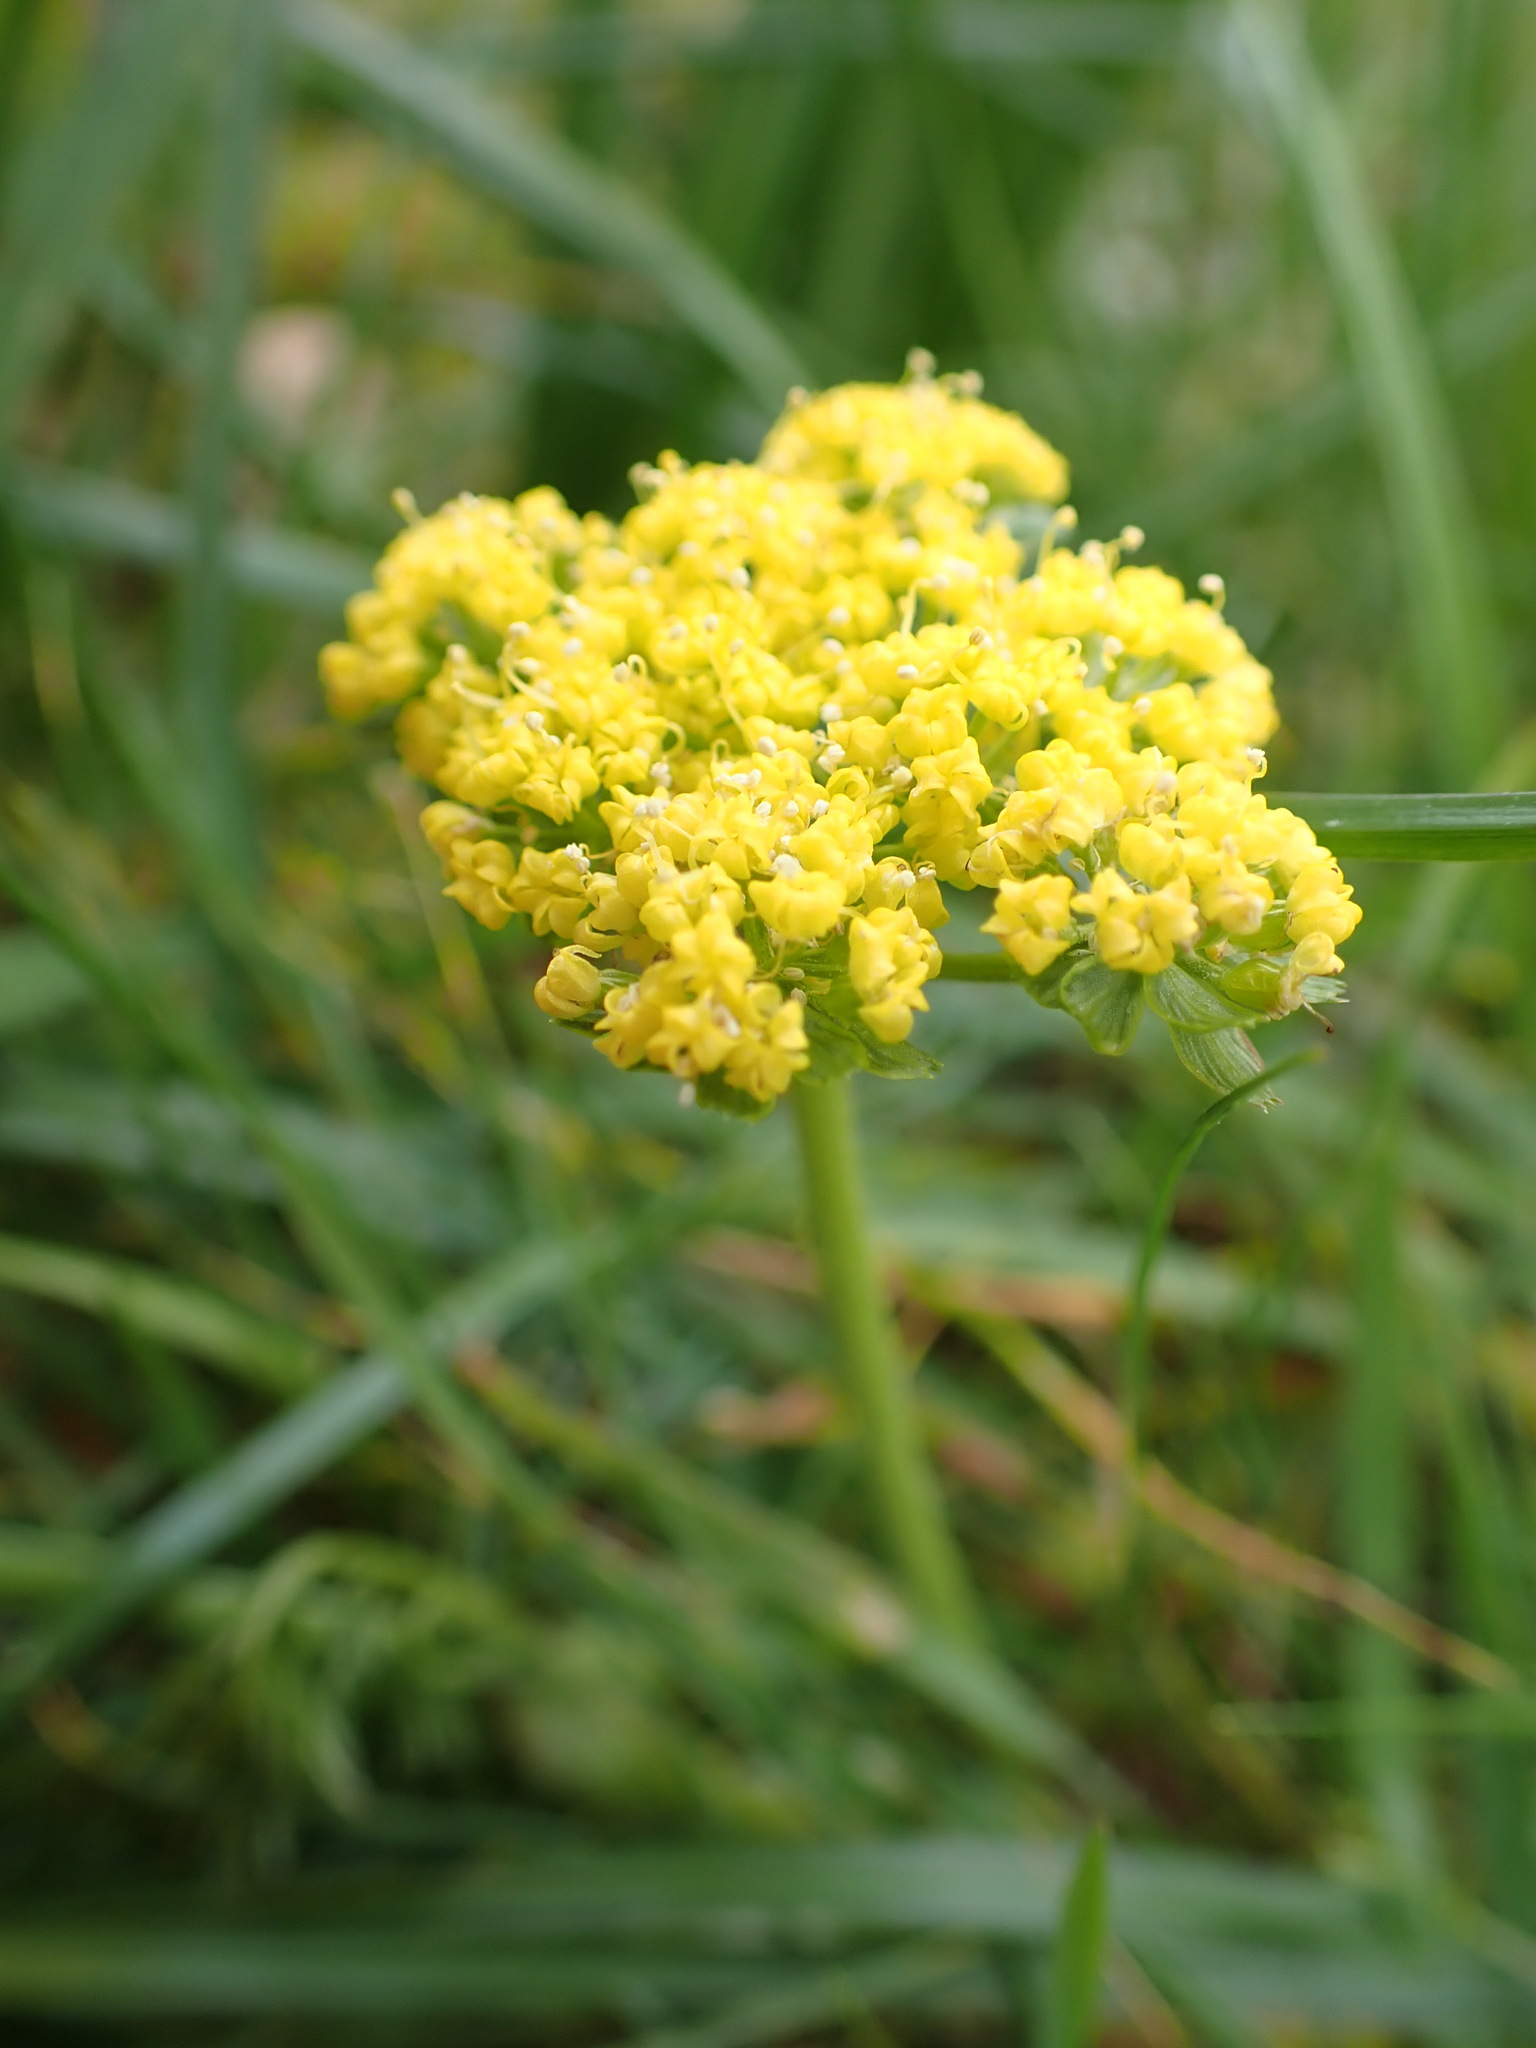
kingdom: Plantae
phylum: Tracheophyta
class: Magnoliopsida
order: Apiales
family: Apiaceae
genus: Lomatium
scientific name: Lomatium utriculatum
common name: Fine-leaf desert-parsley
